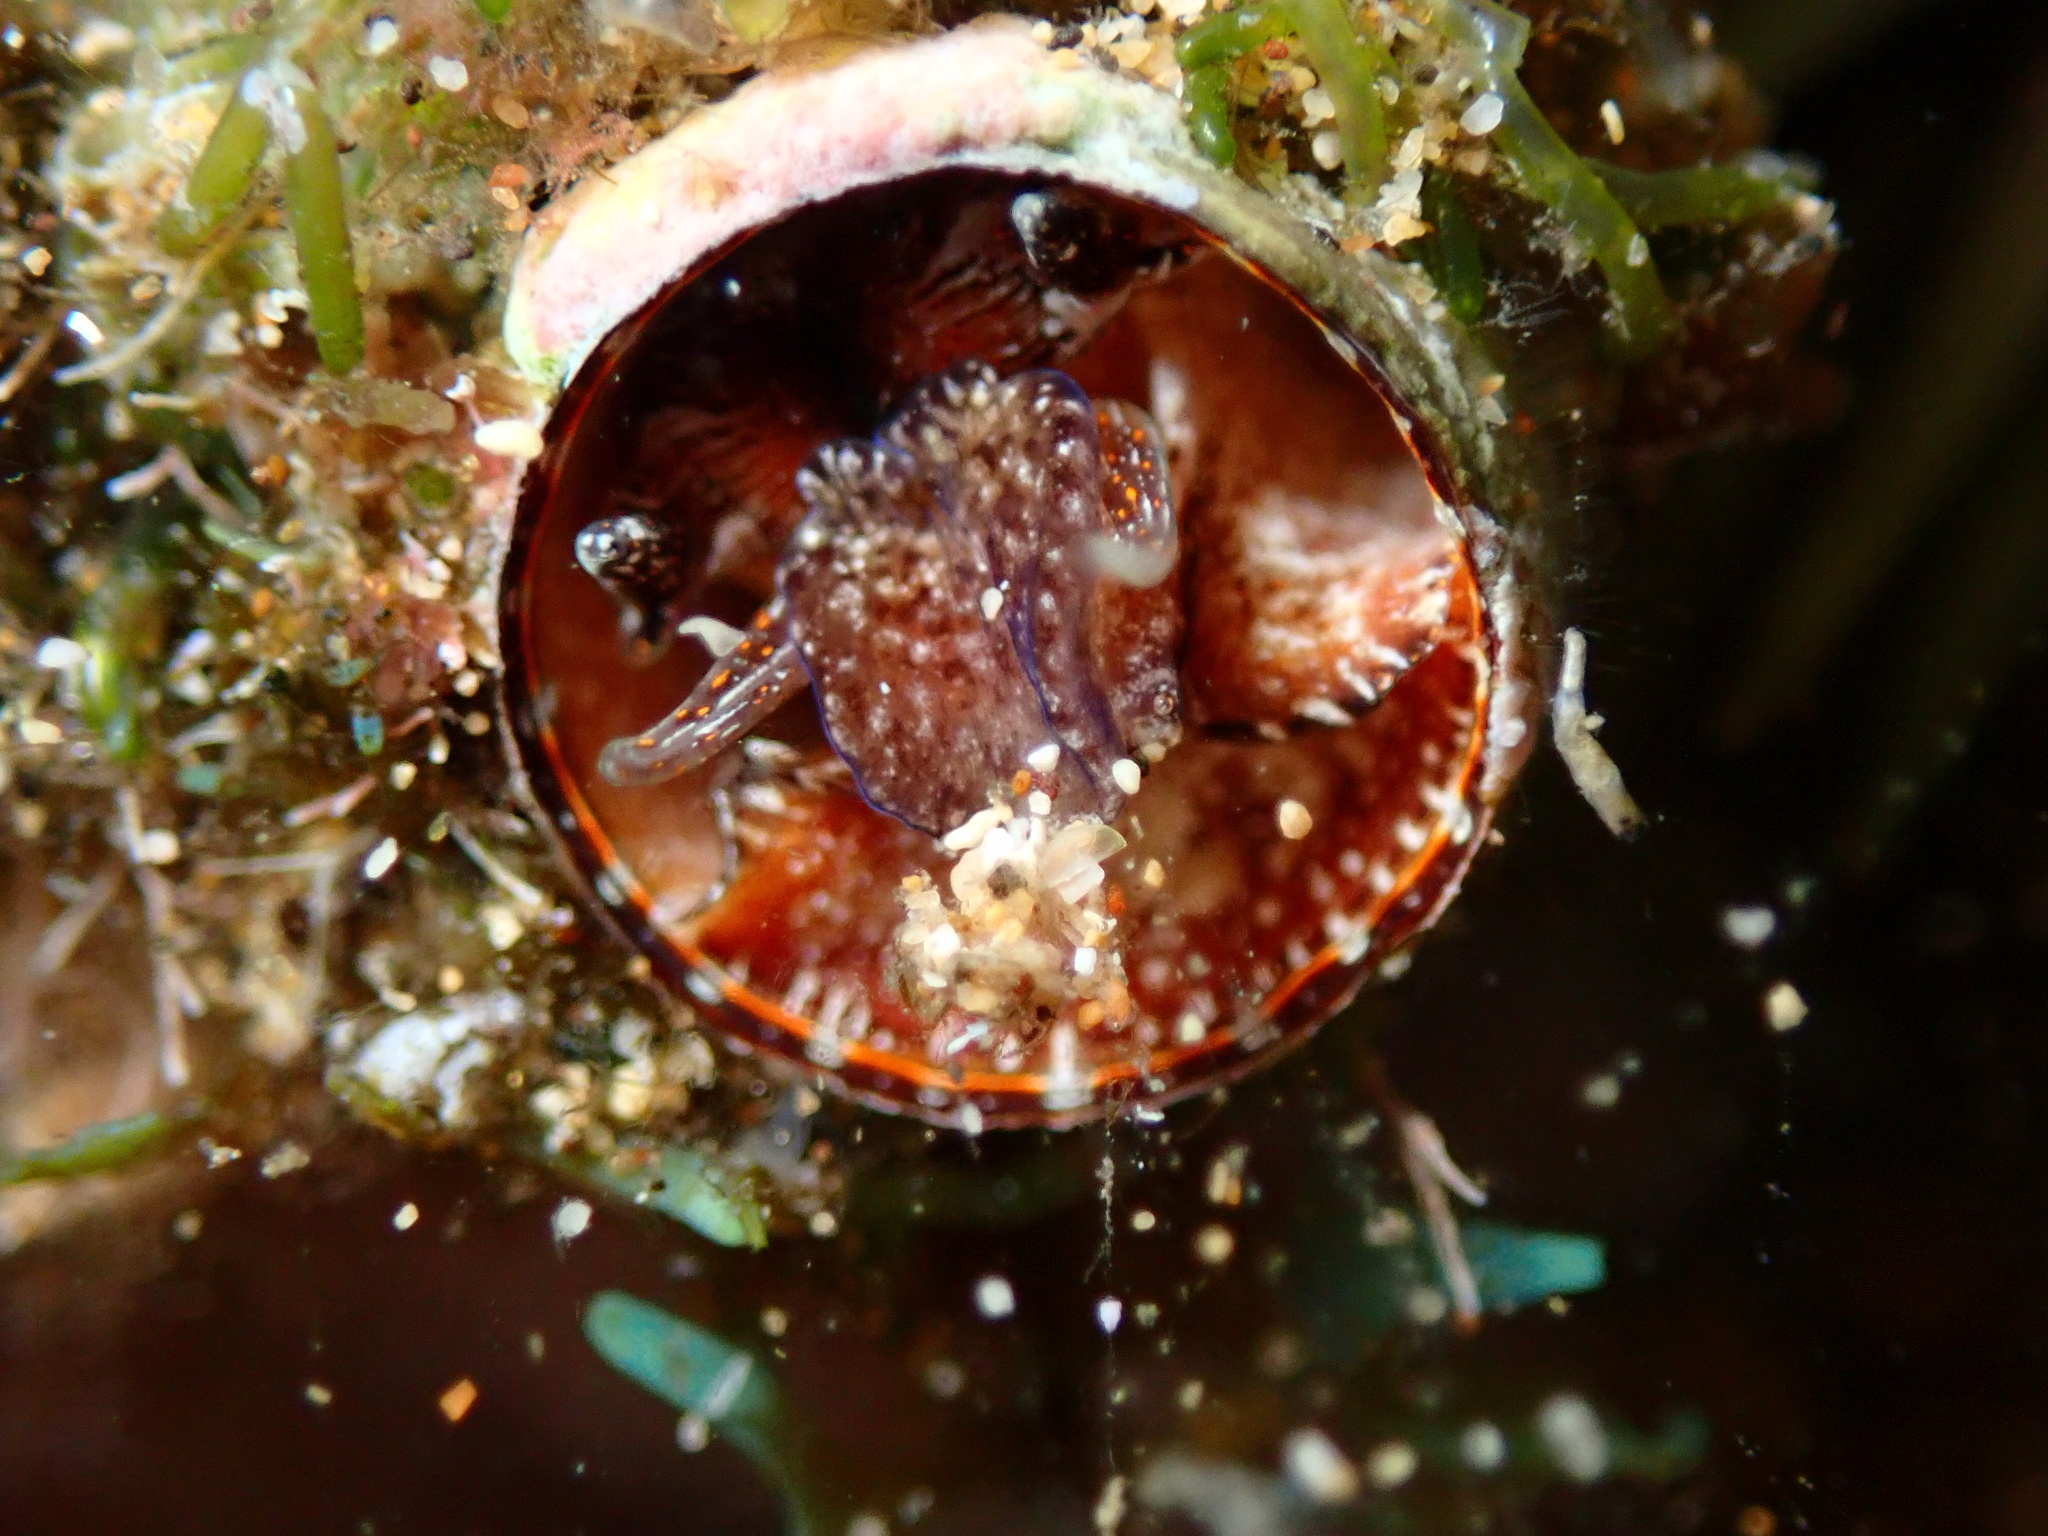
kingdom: Animalia
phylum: Mollusca
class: Gastropoda
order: Littorinimorpha
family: Vermetidae
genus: Thylacodes
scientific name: Thylacodes variabilis
